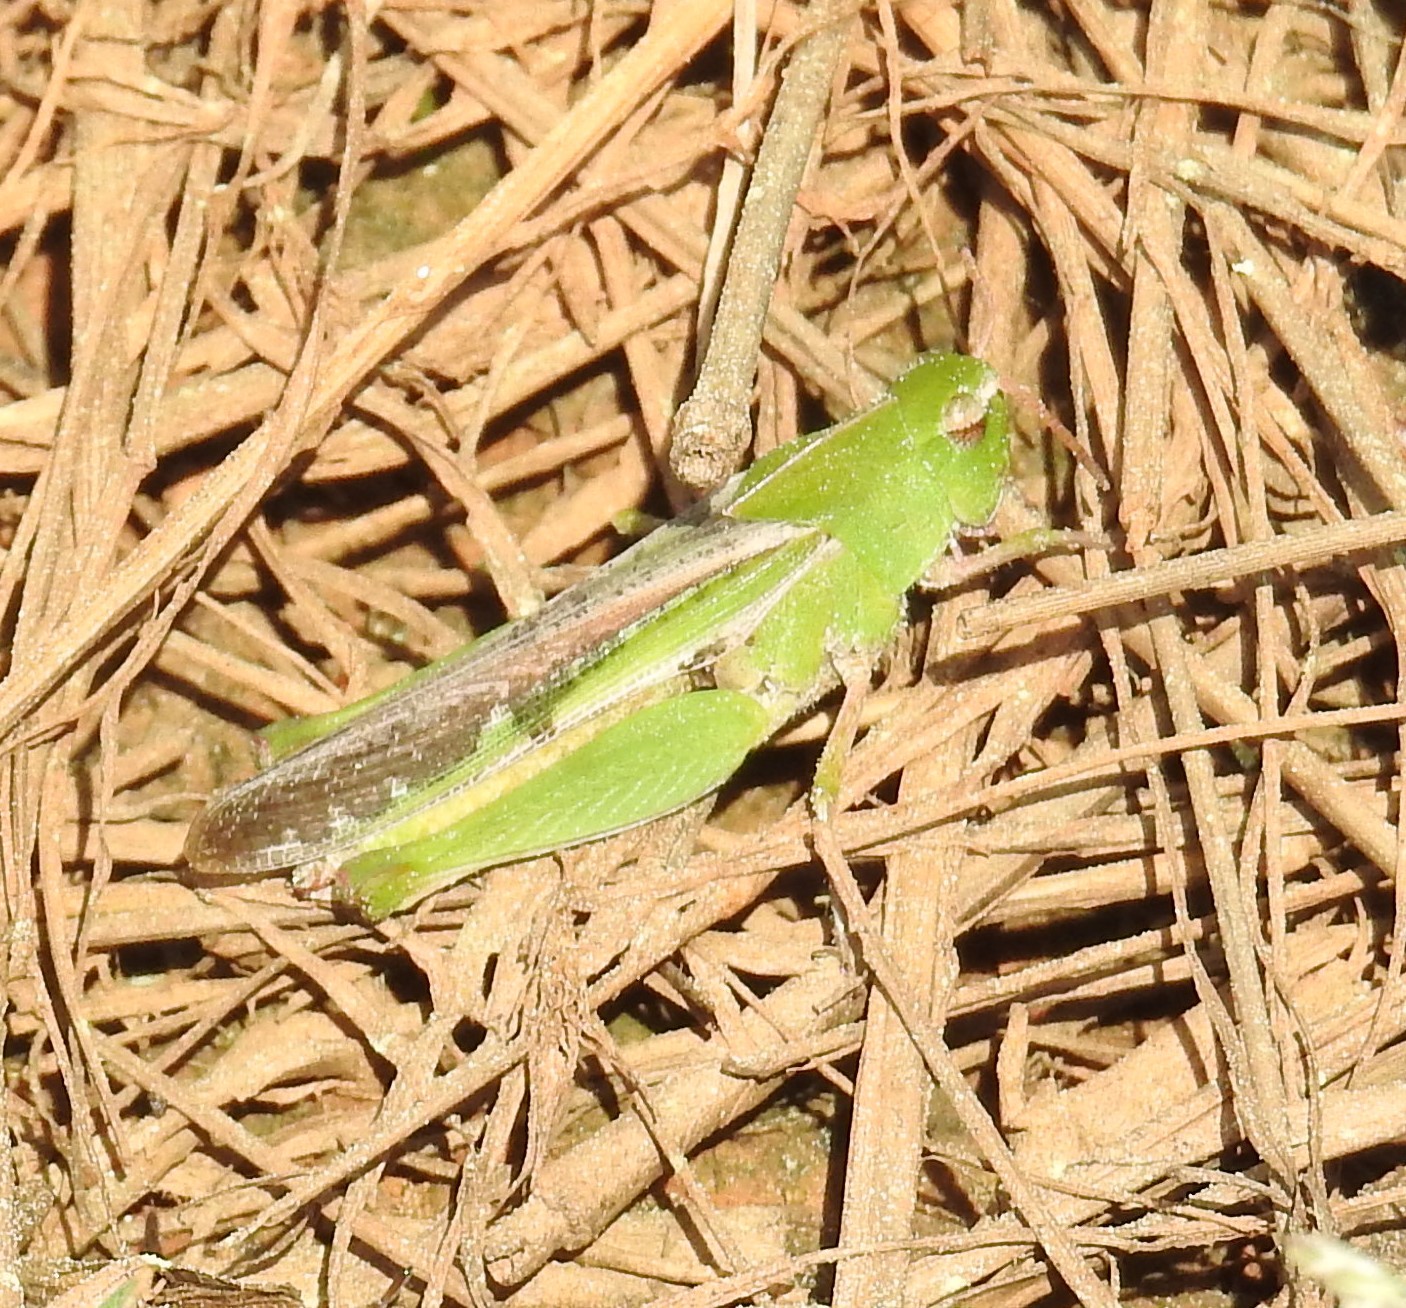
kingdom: Animalia
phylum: Arthropoda
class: Insecta
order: Orthoptera
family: Acrididae
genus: Chortophaga
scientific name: Chortophaga viridifasciata
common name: Green-striped grasshopper
